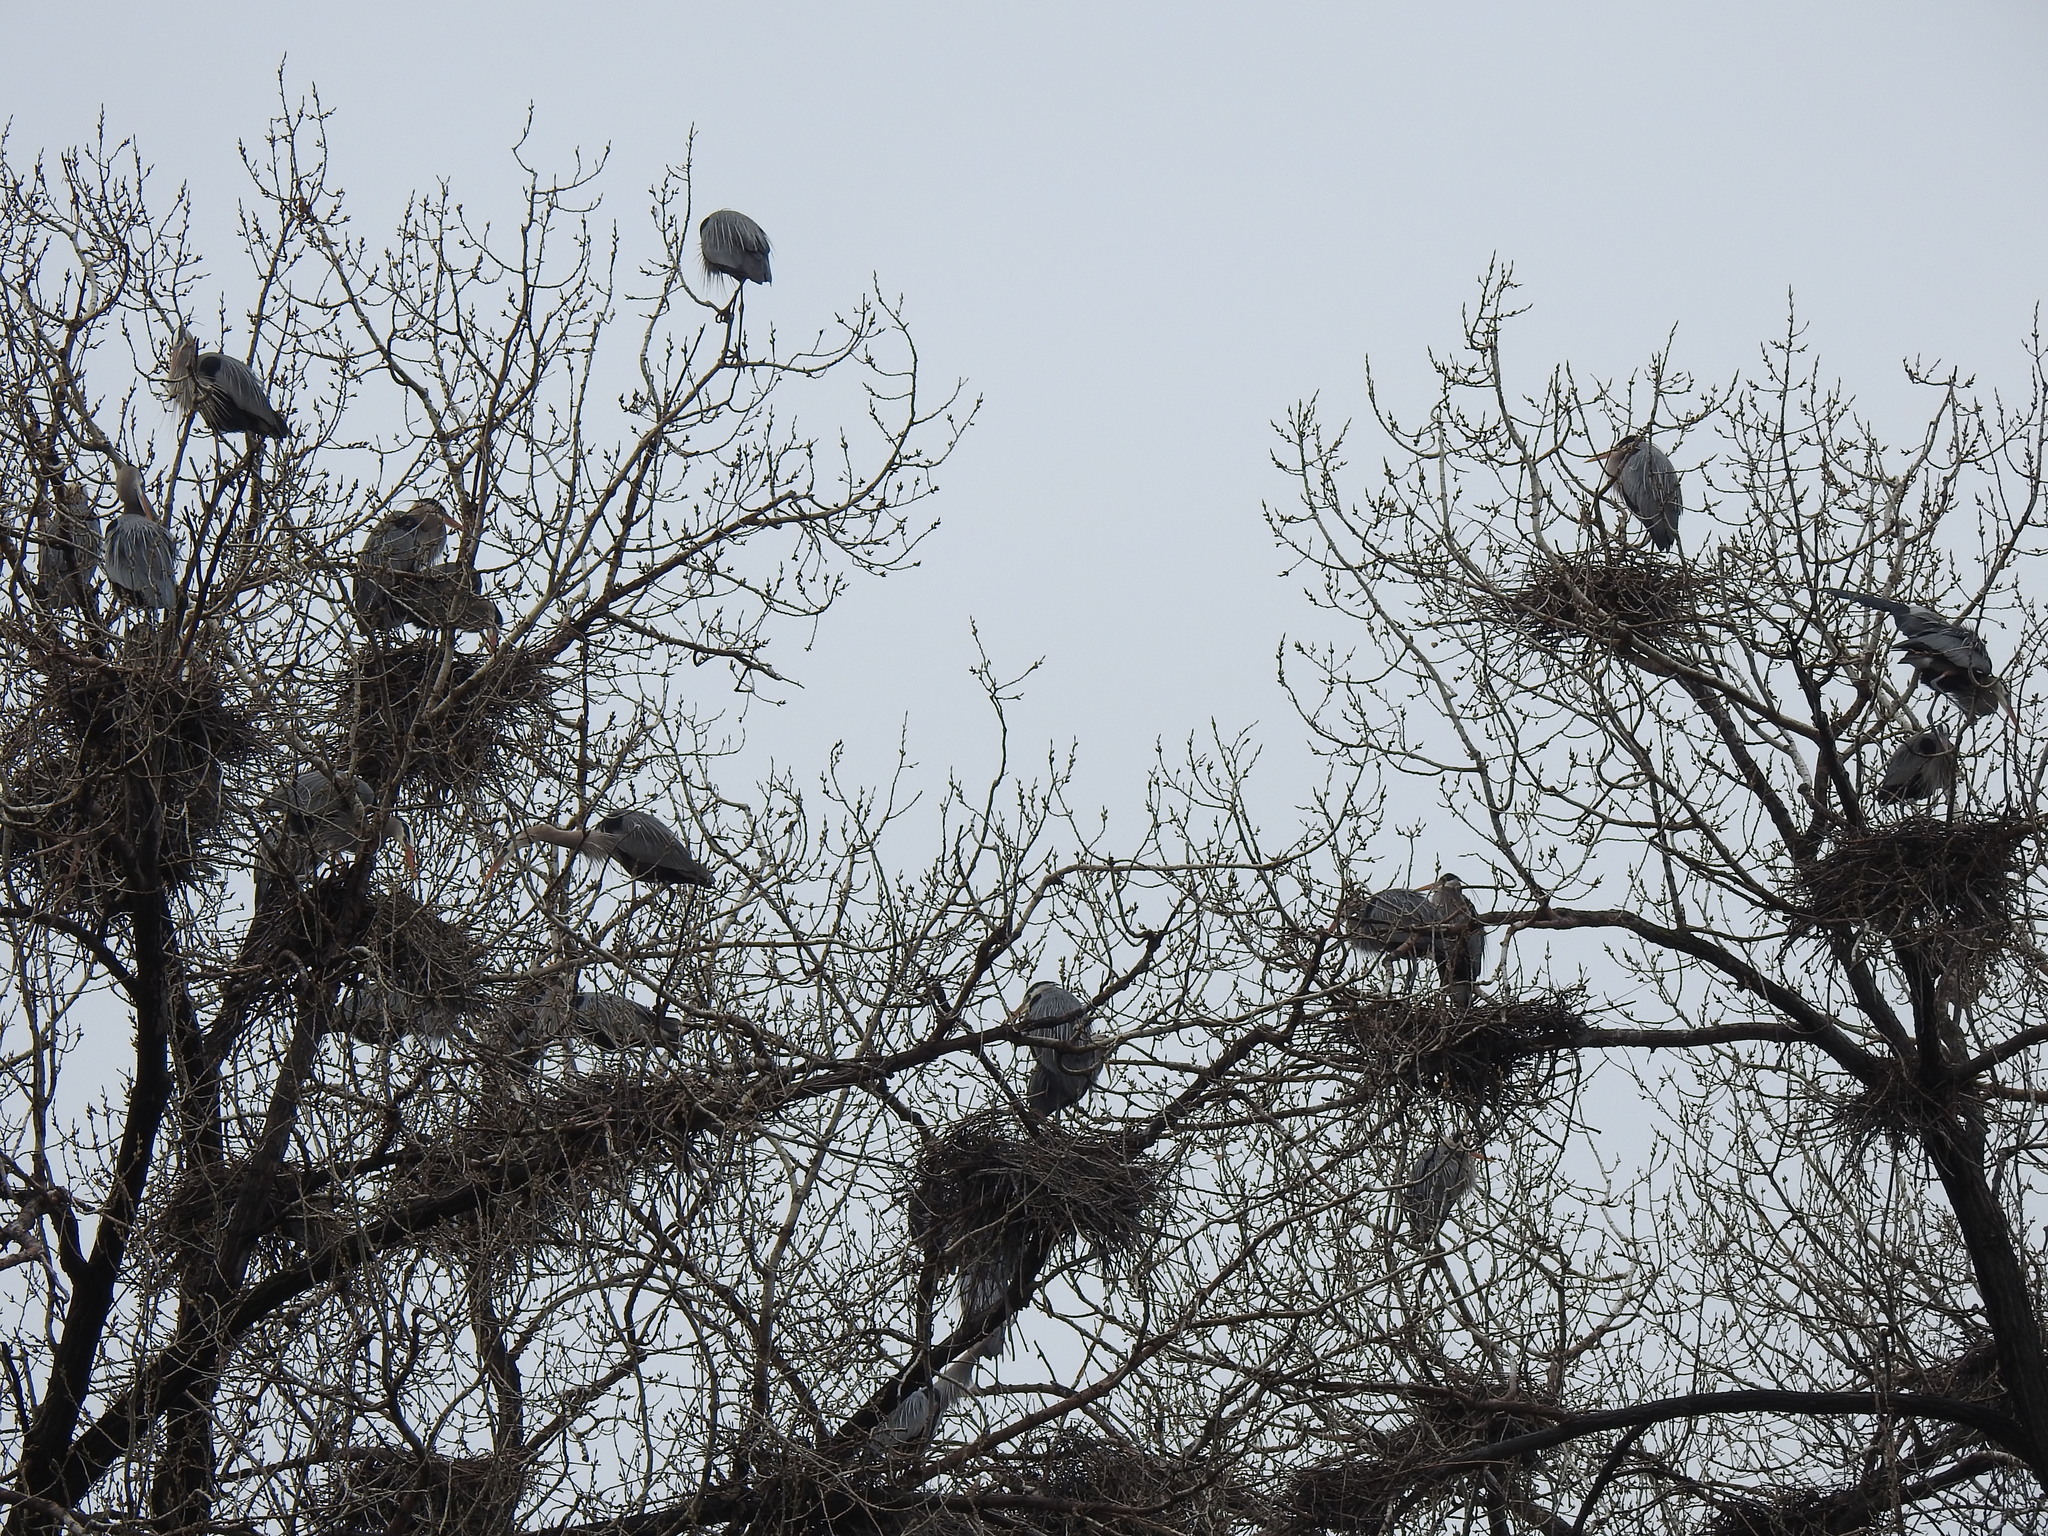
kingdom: Animalia
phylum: Chordata
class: Aves
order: Pelecaniformes
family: Ardeidae
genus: Ardea
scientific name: Ardea herodias
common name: Great blue heron
